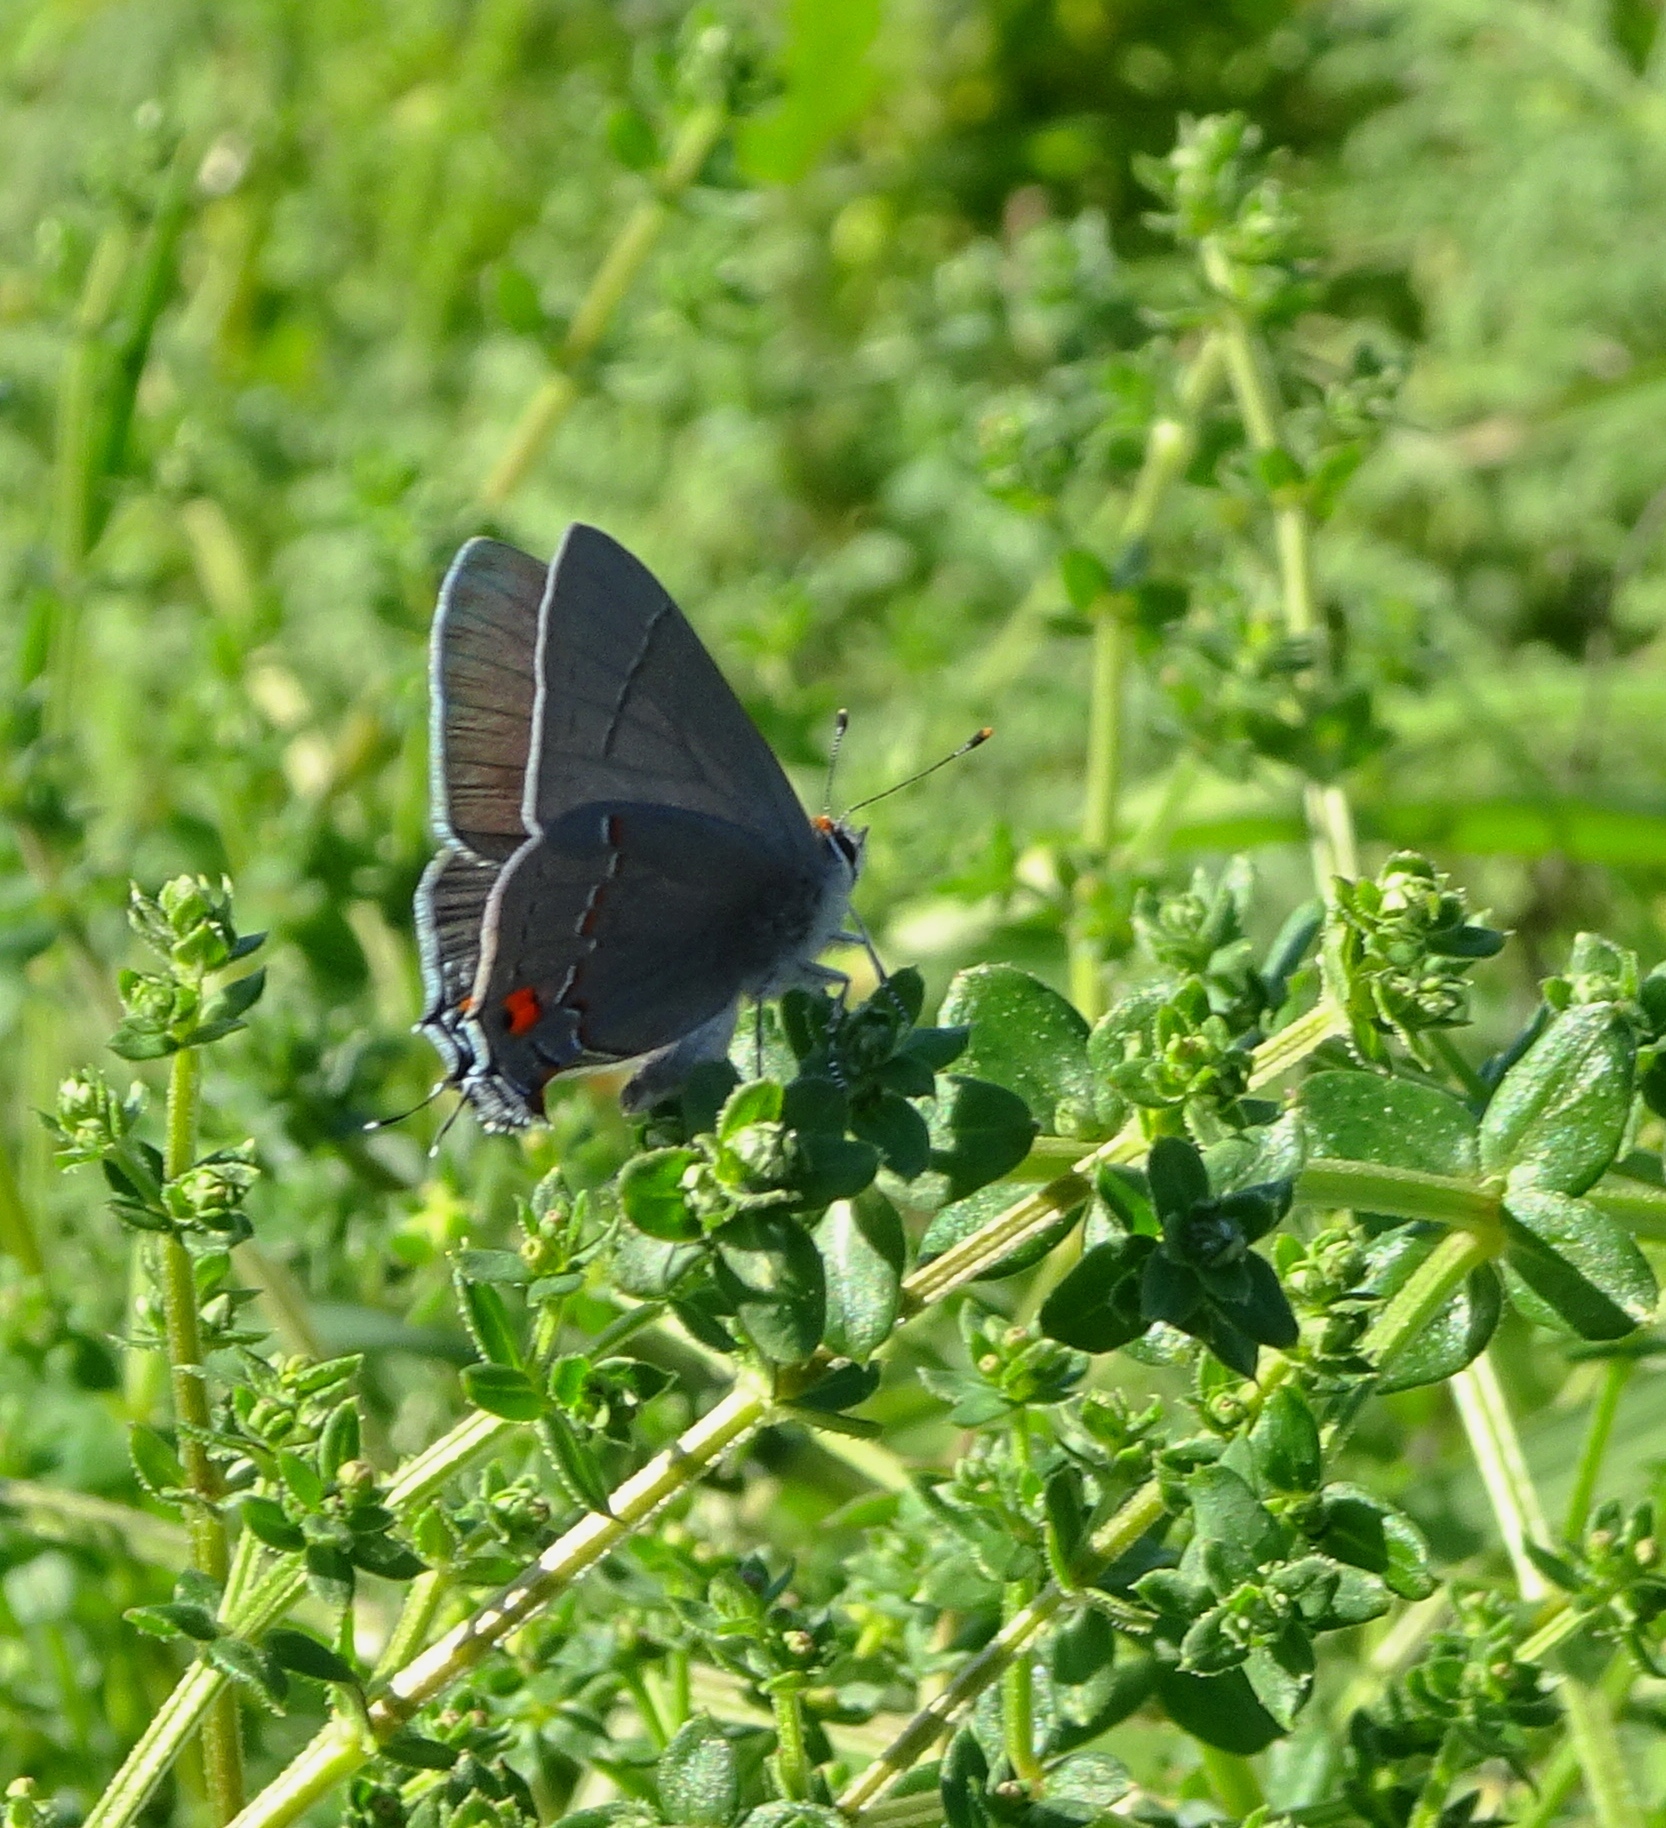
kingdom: Animalia
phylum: Arthropoda
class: Insecta
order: Lepidoptera
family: Lycaenidae
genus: Strymon
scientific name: Strymon melinus
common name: Gray hairstreak
